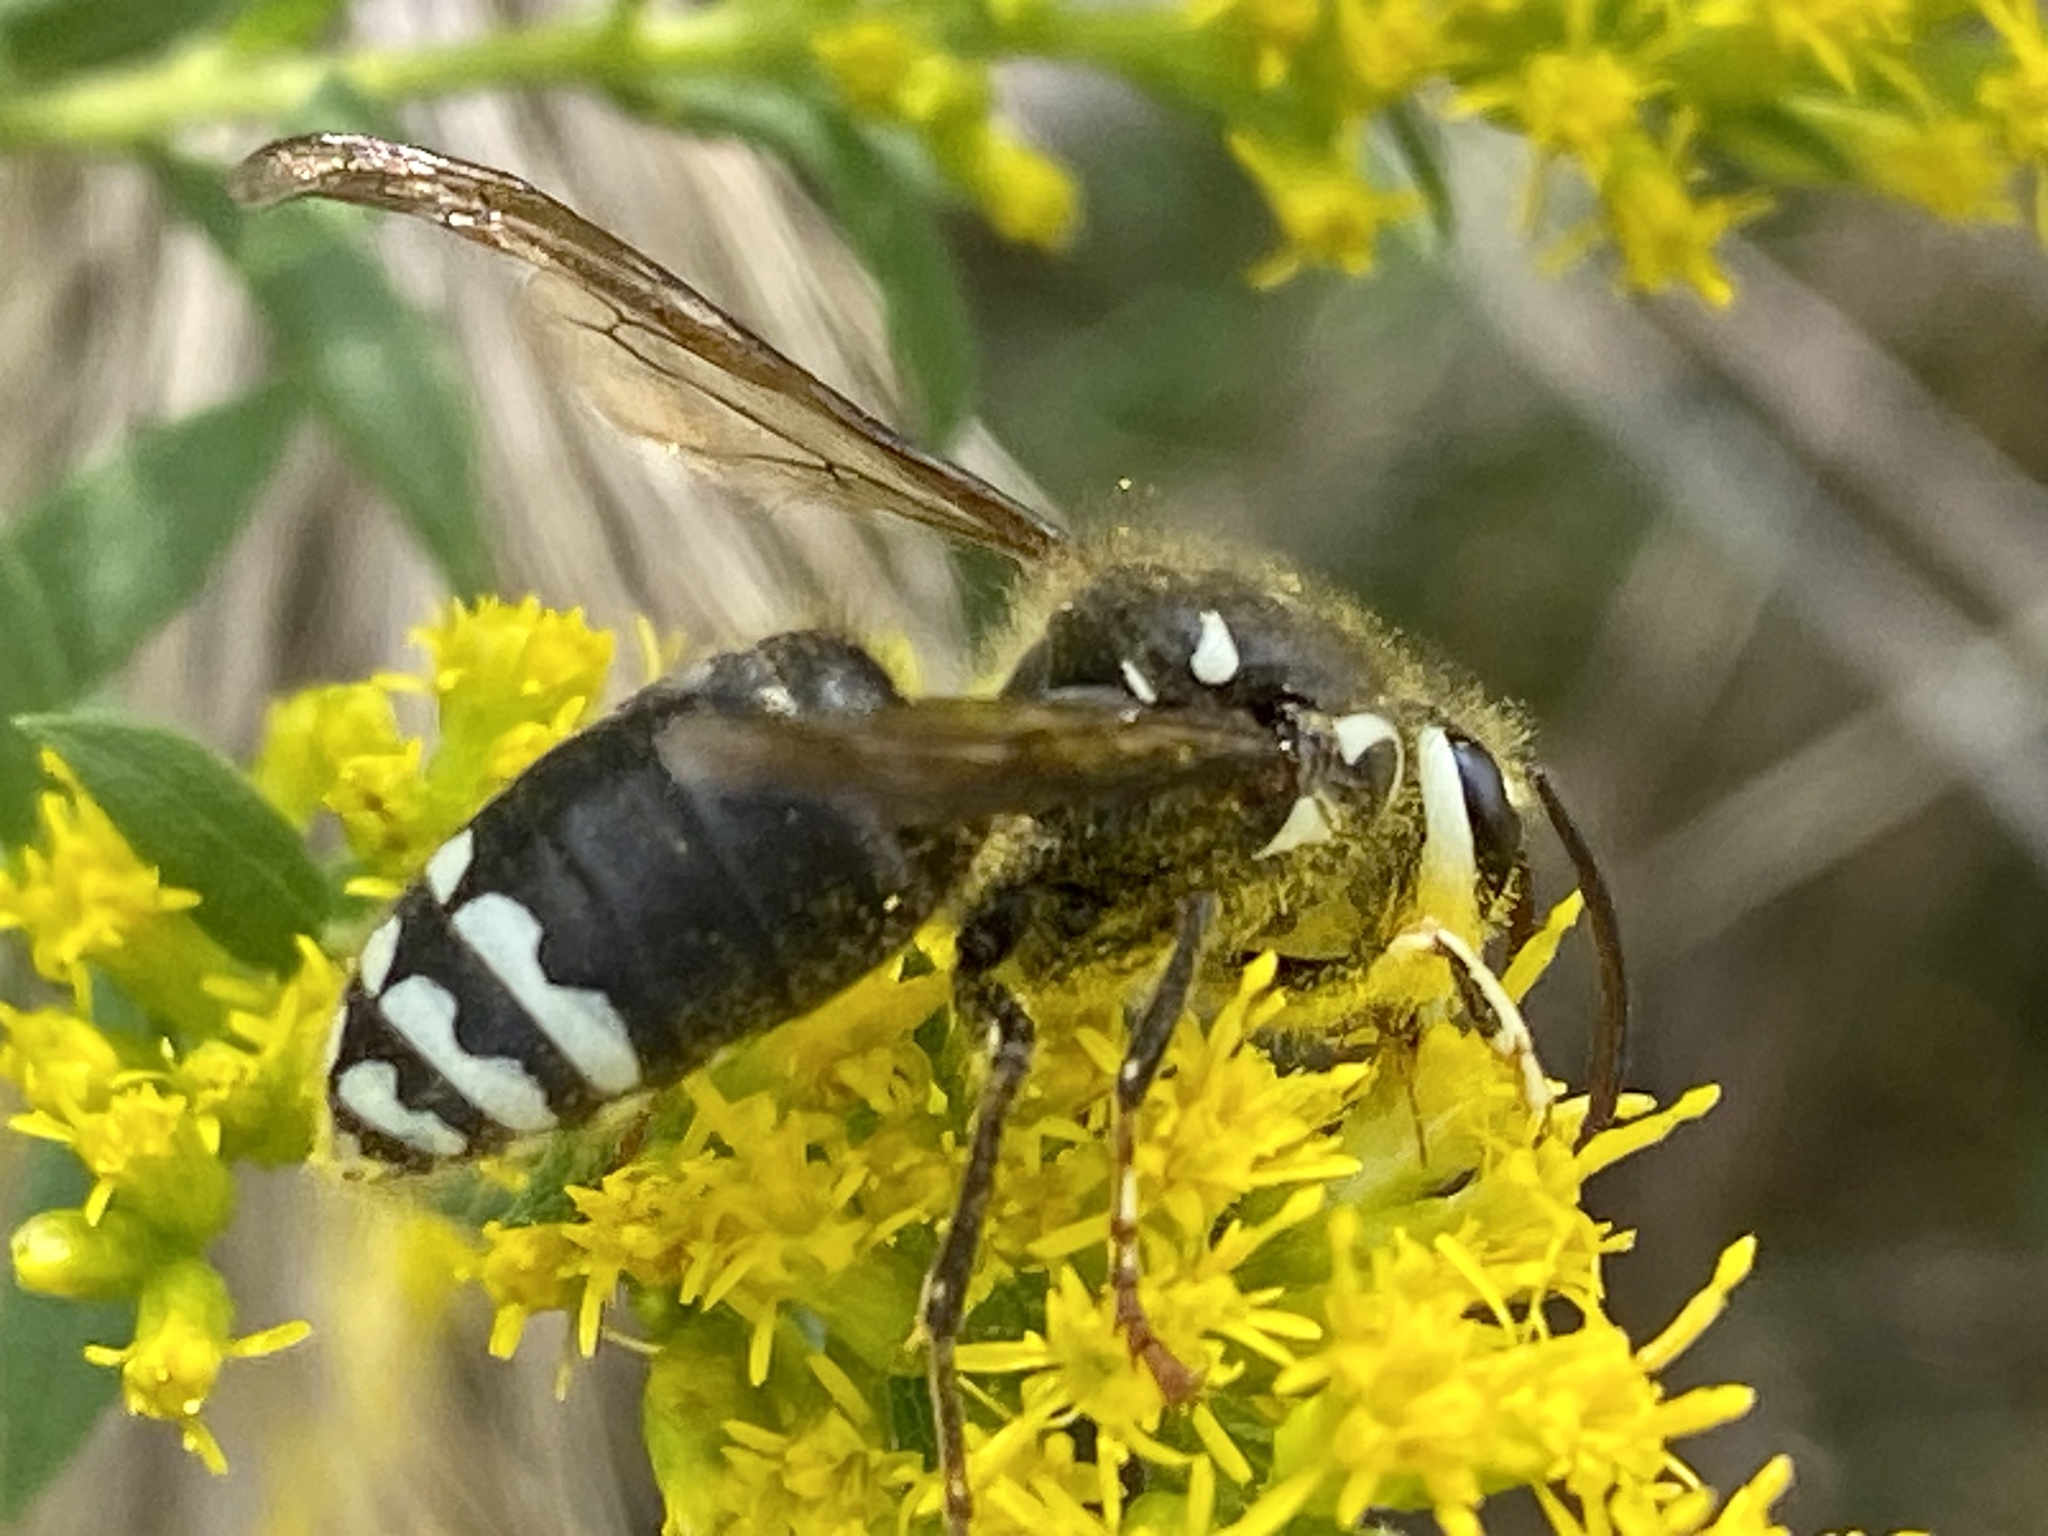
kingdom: Animalia
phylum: Arthropoda
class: Insecta
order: Hymenoptera
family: Vespidae
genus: Dolichovespula
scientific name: Dolichovespula maculata
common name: Bald-faced hornet
